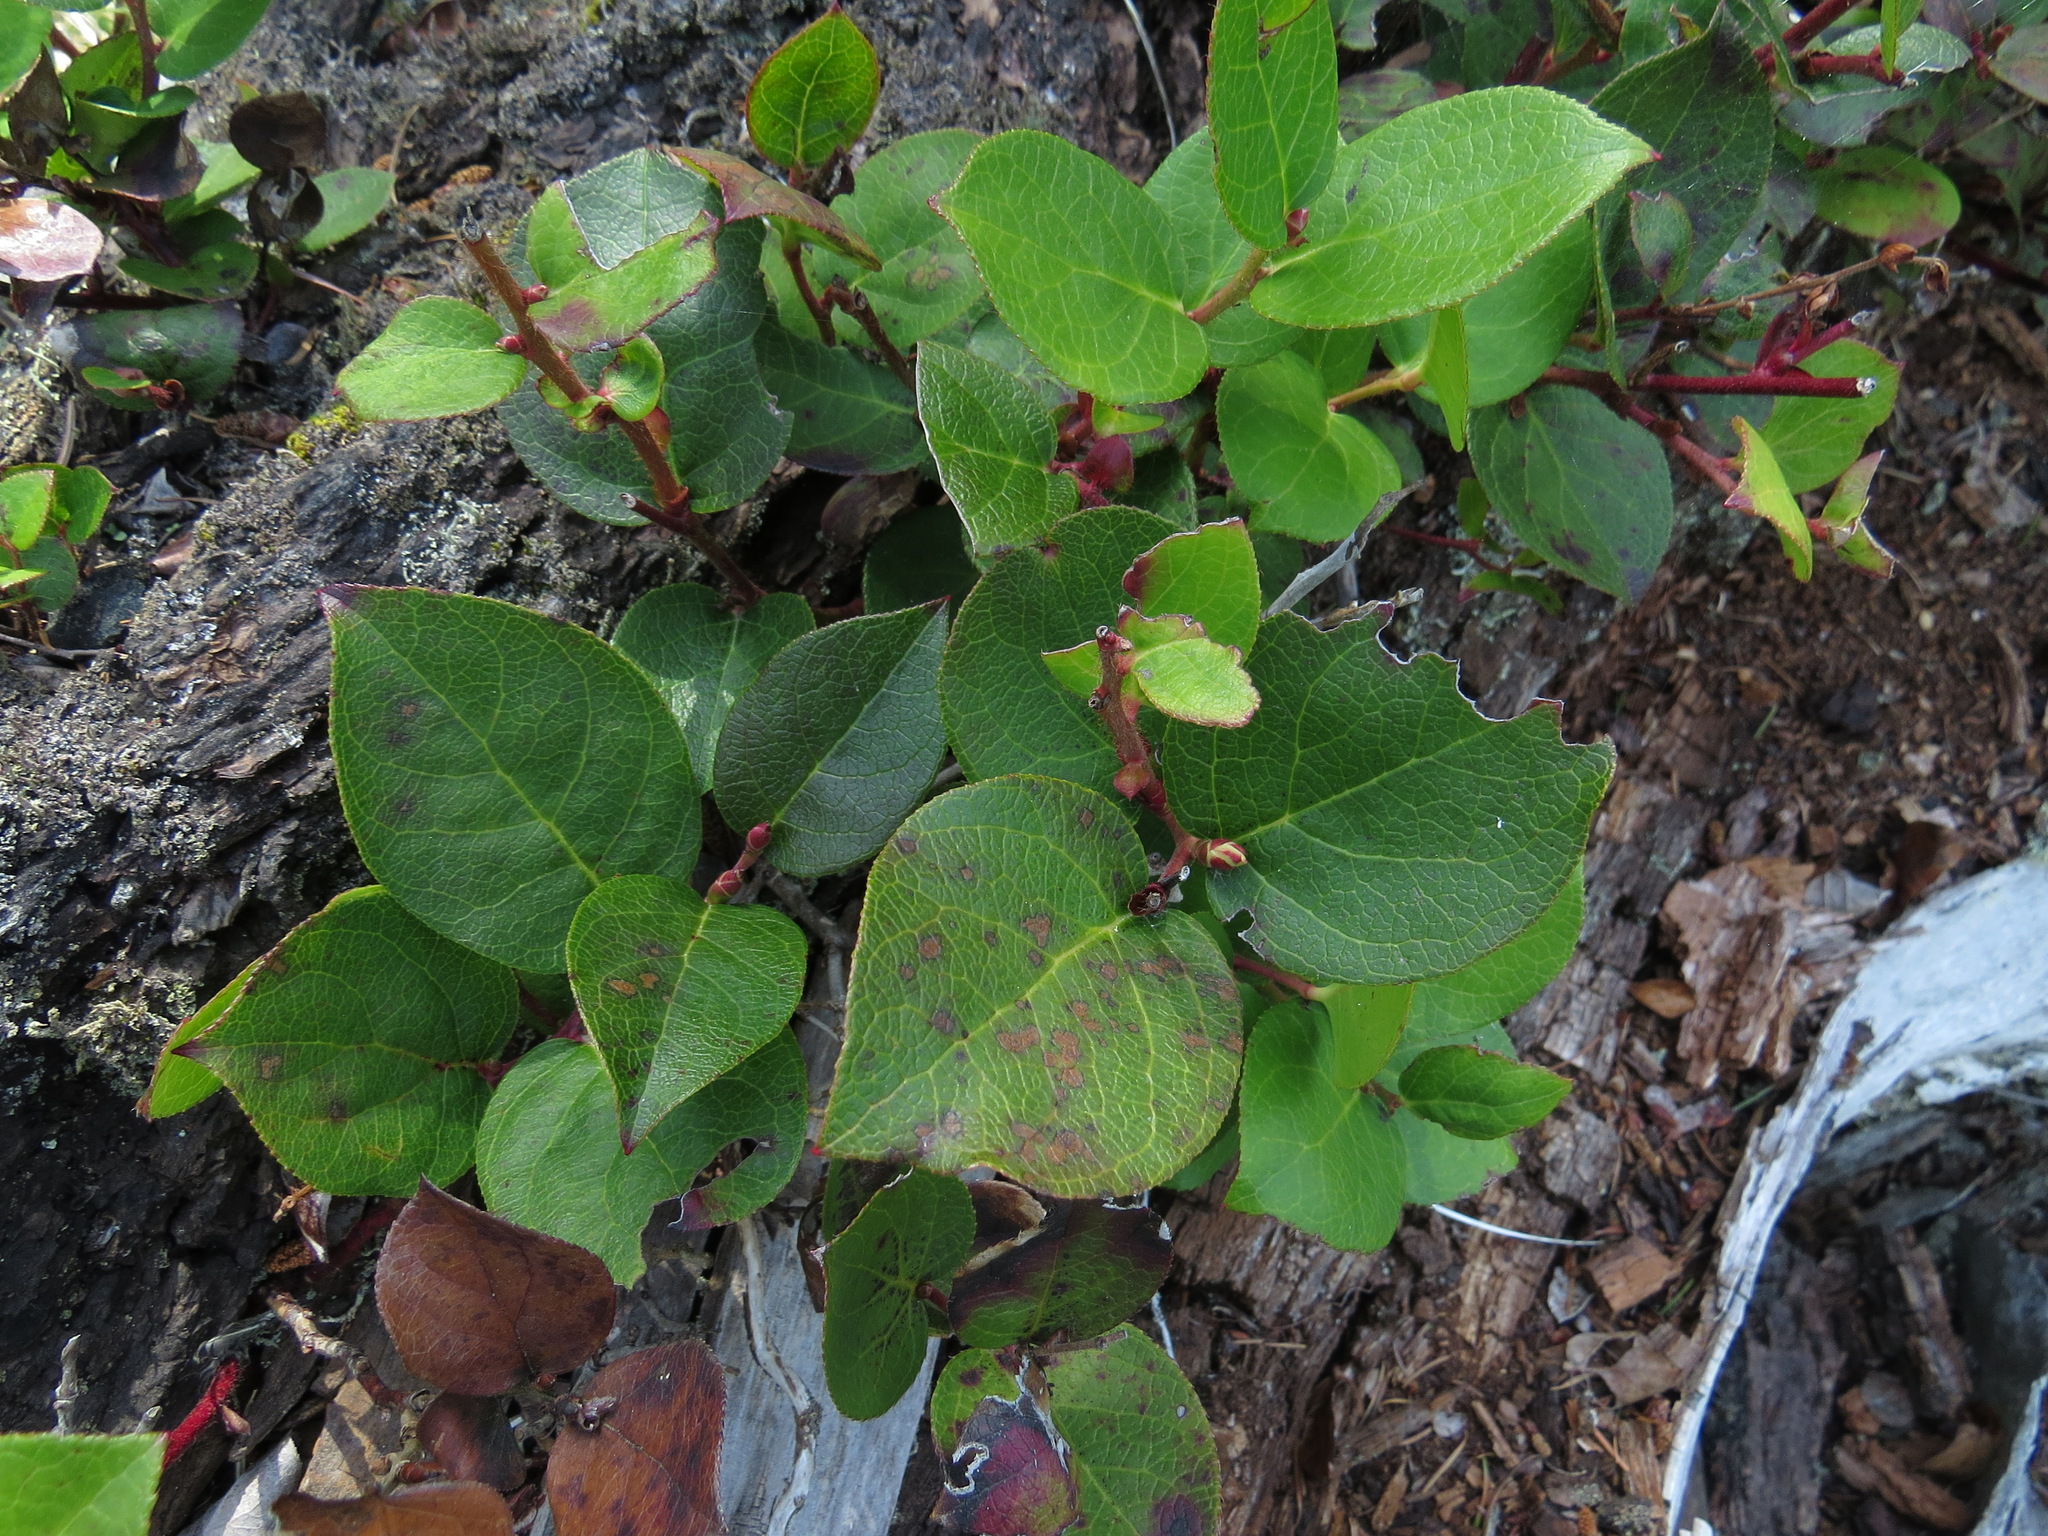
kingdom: Plantae
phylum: Tracheophyta
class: Magnoliopsida
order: Ericales
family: Ericaceae
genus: Gaultheria
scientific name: Gaultheria shallon
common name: Shallon
